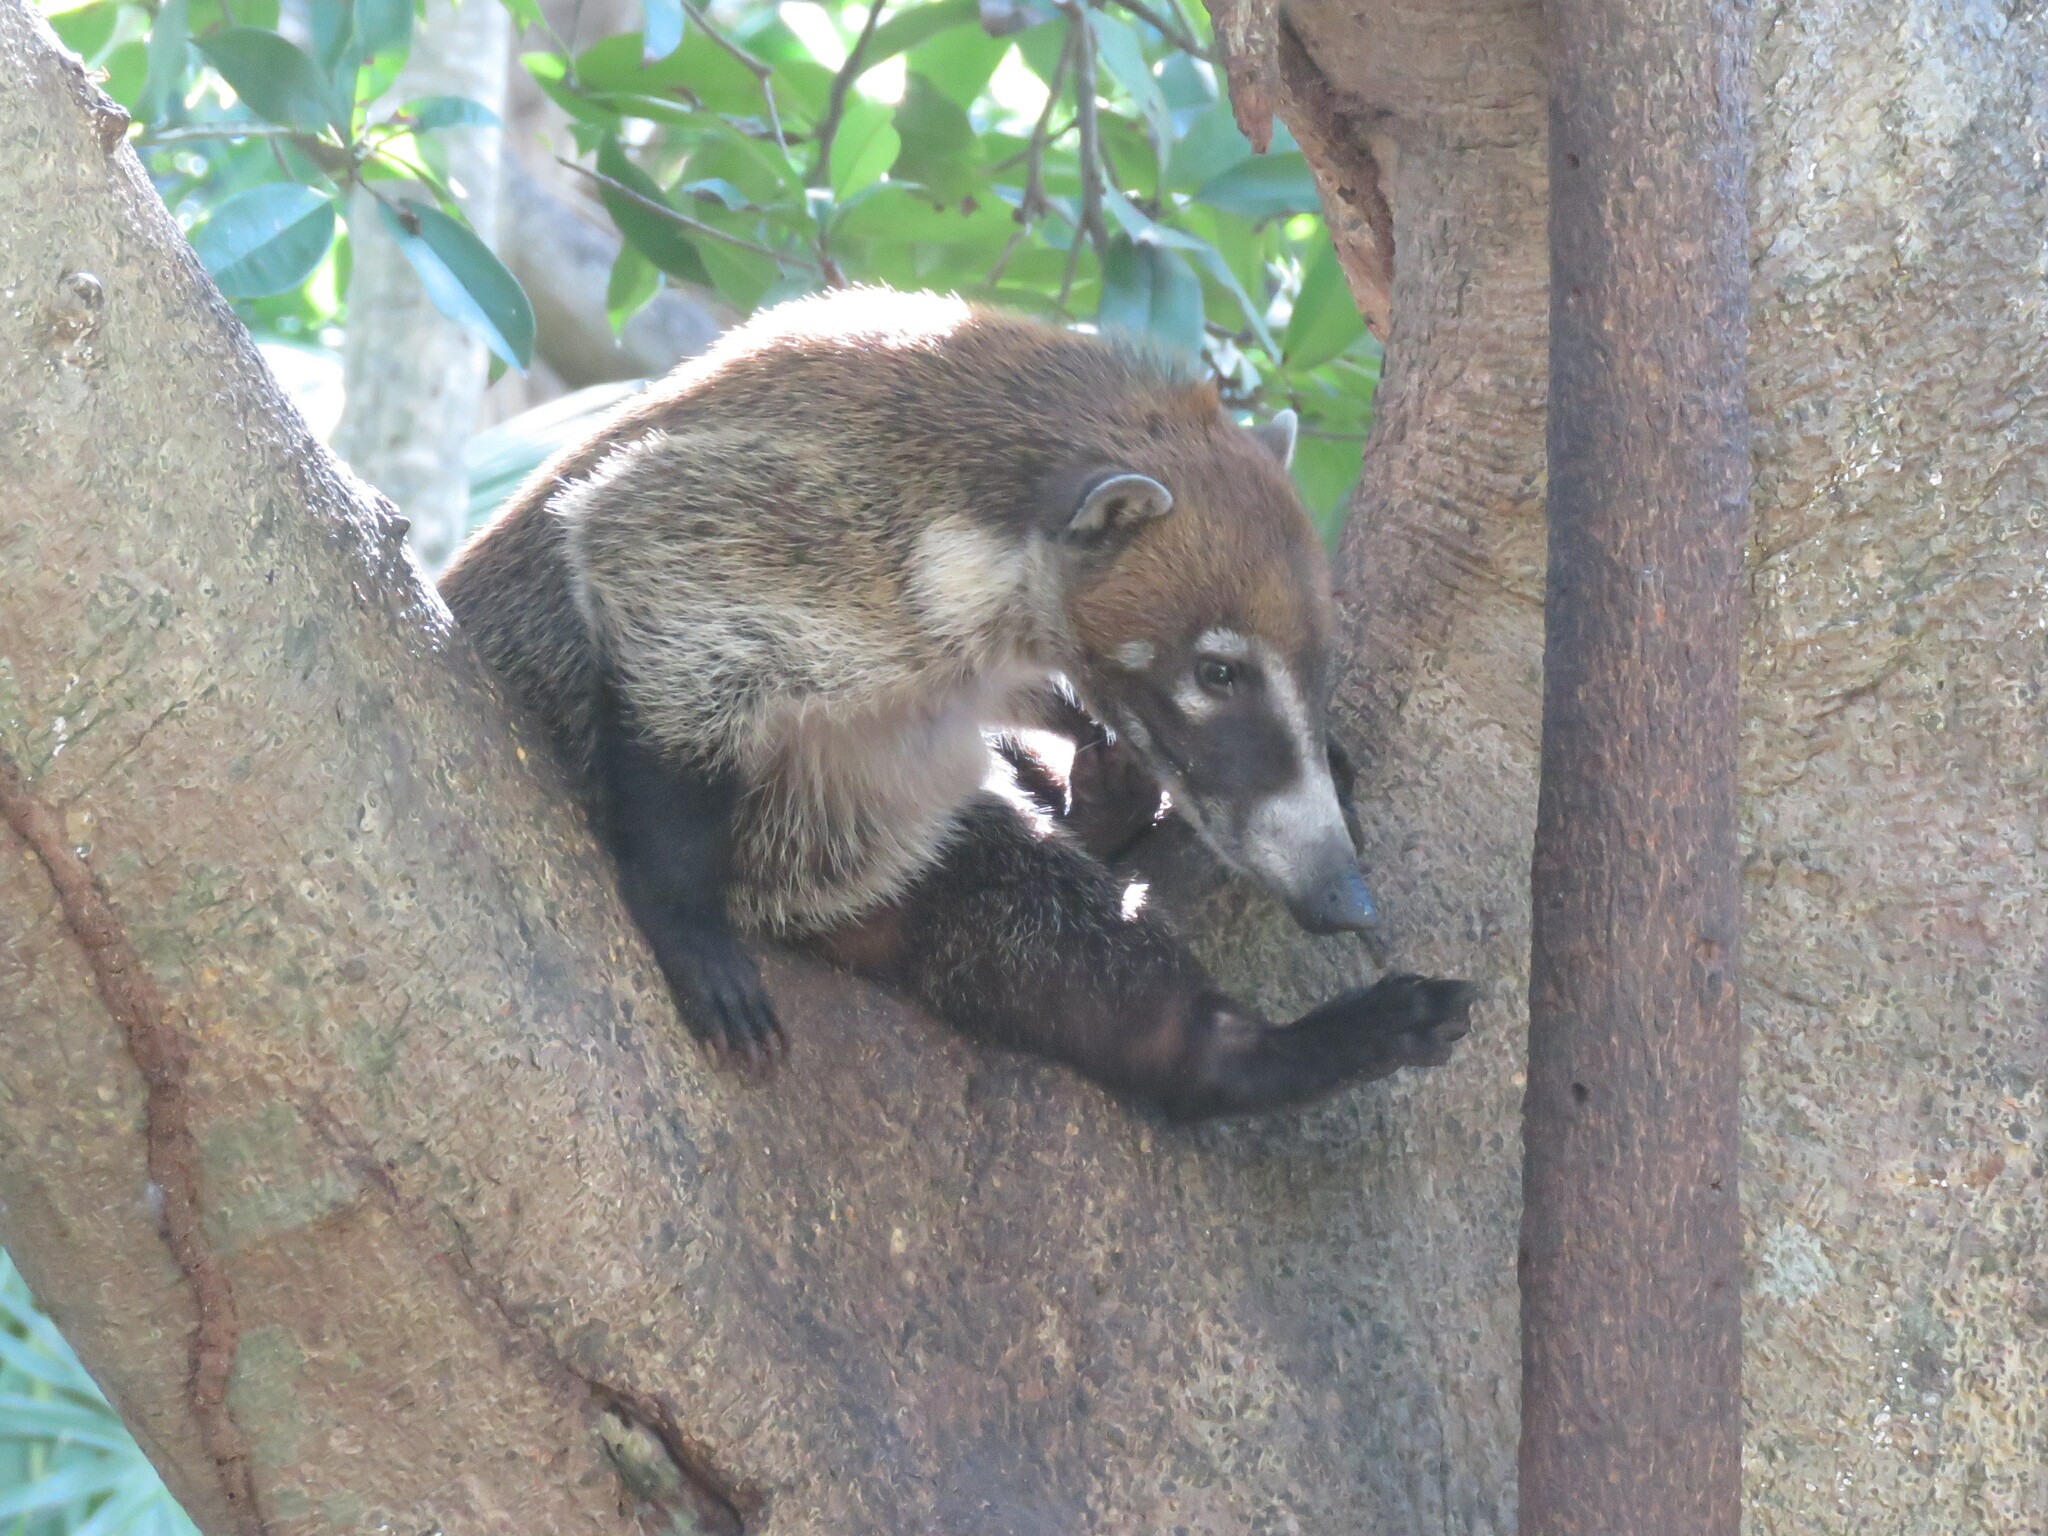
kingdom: Animalia
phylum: Chordata
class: Mammalia
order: Carnivora
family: Procyonidae
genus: Nasua
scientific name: Nasua narica
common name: White-nosed coati
